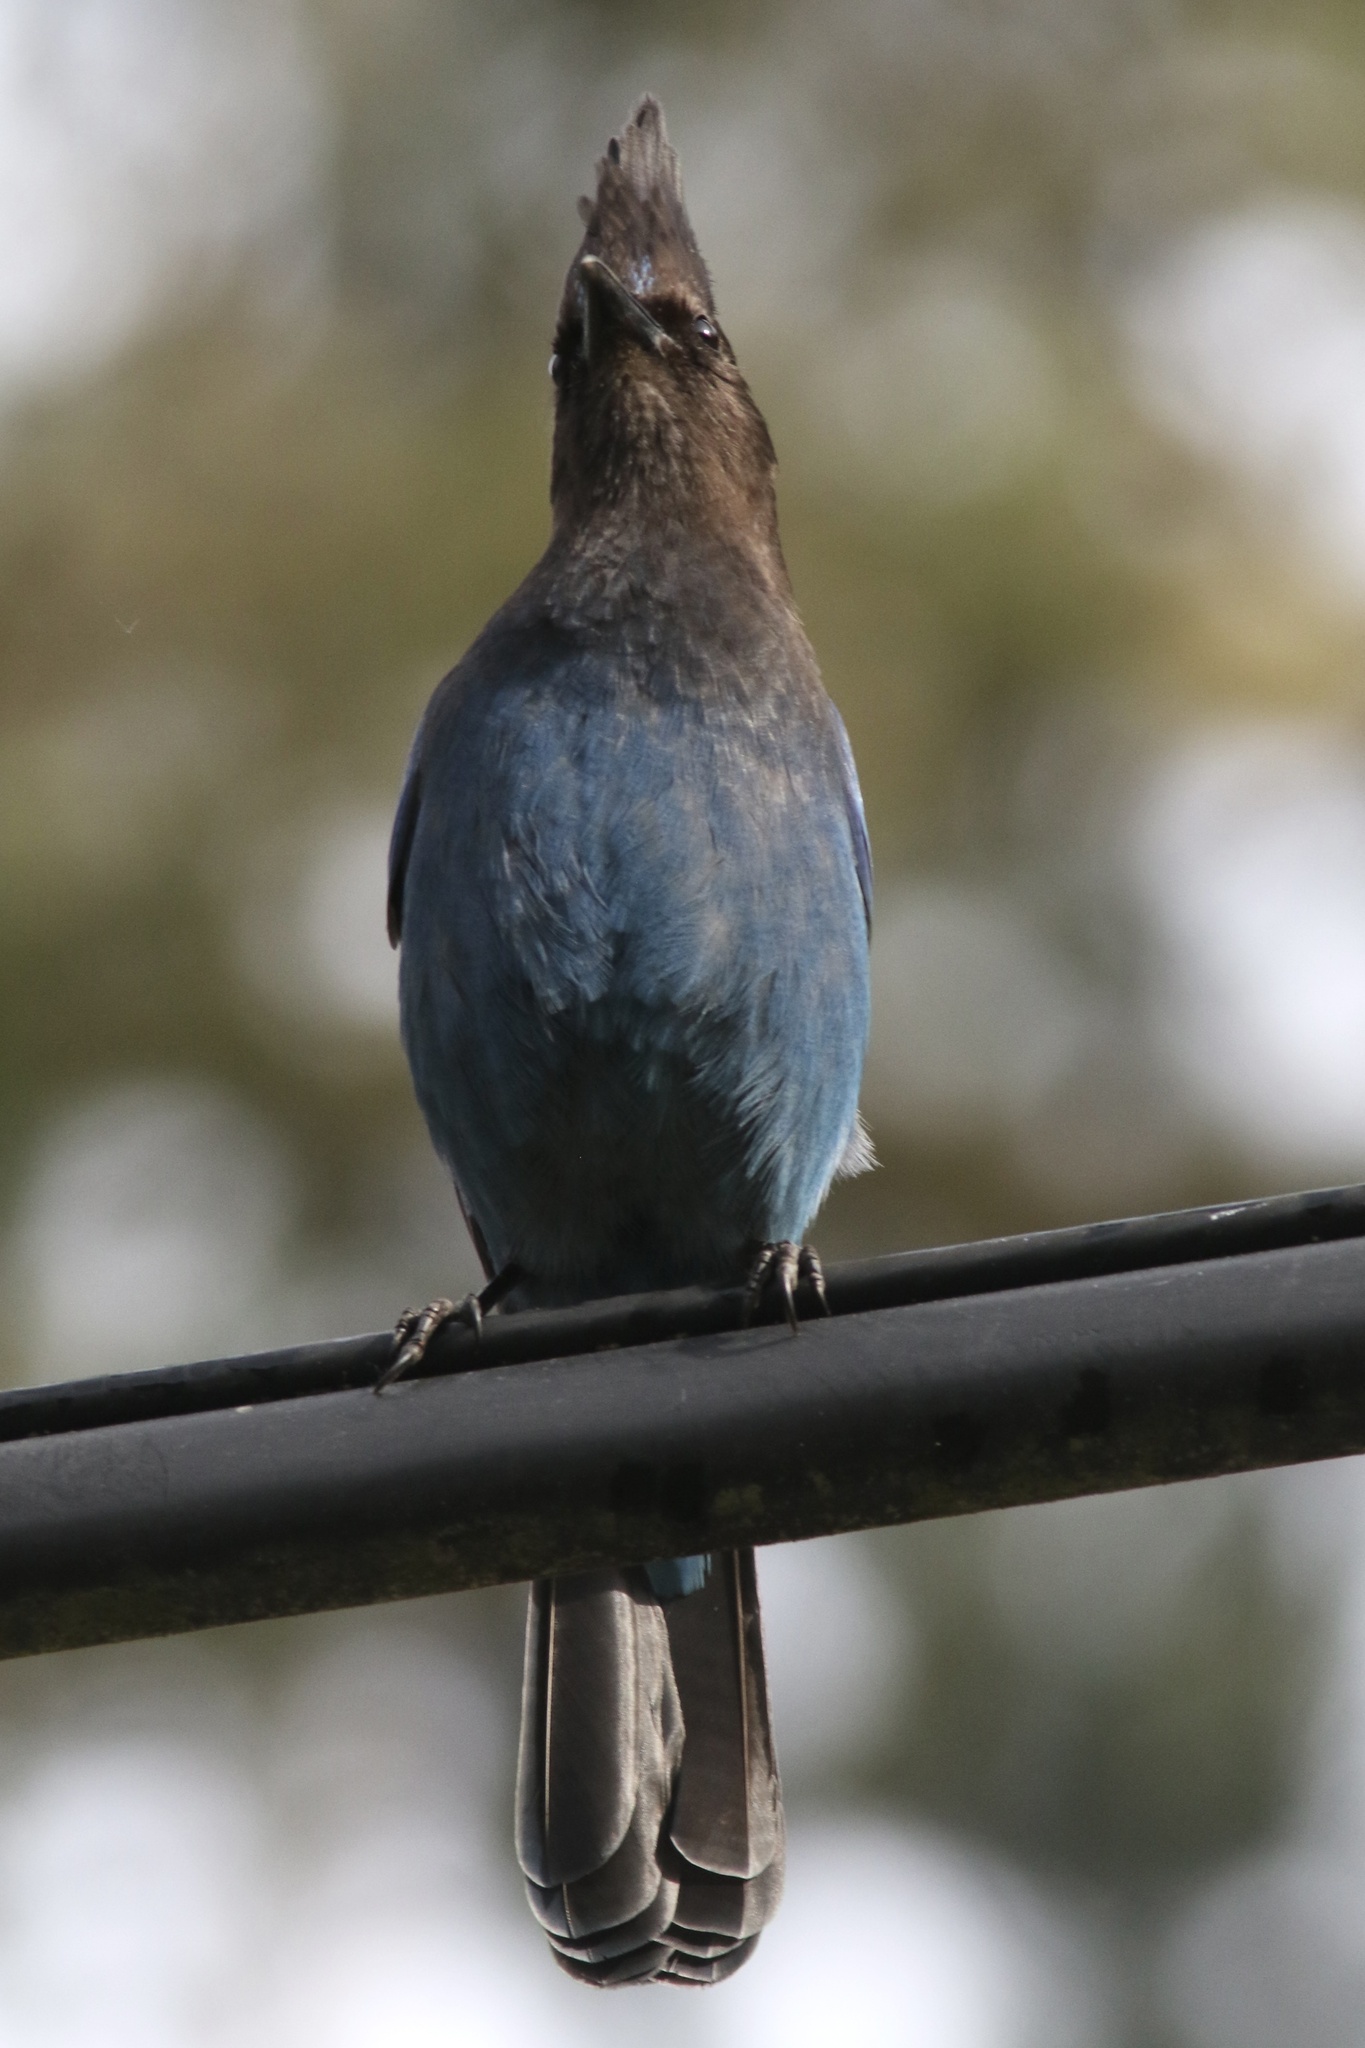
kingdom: Animalia
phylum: Chordata
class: Aves
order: Passeriformes
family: Corvidae
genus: Cyanocitta
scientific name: Cyanocitta stelleri
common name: Steller's jay
